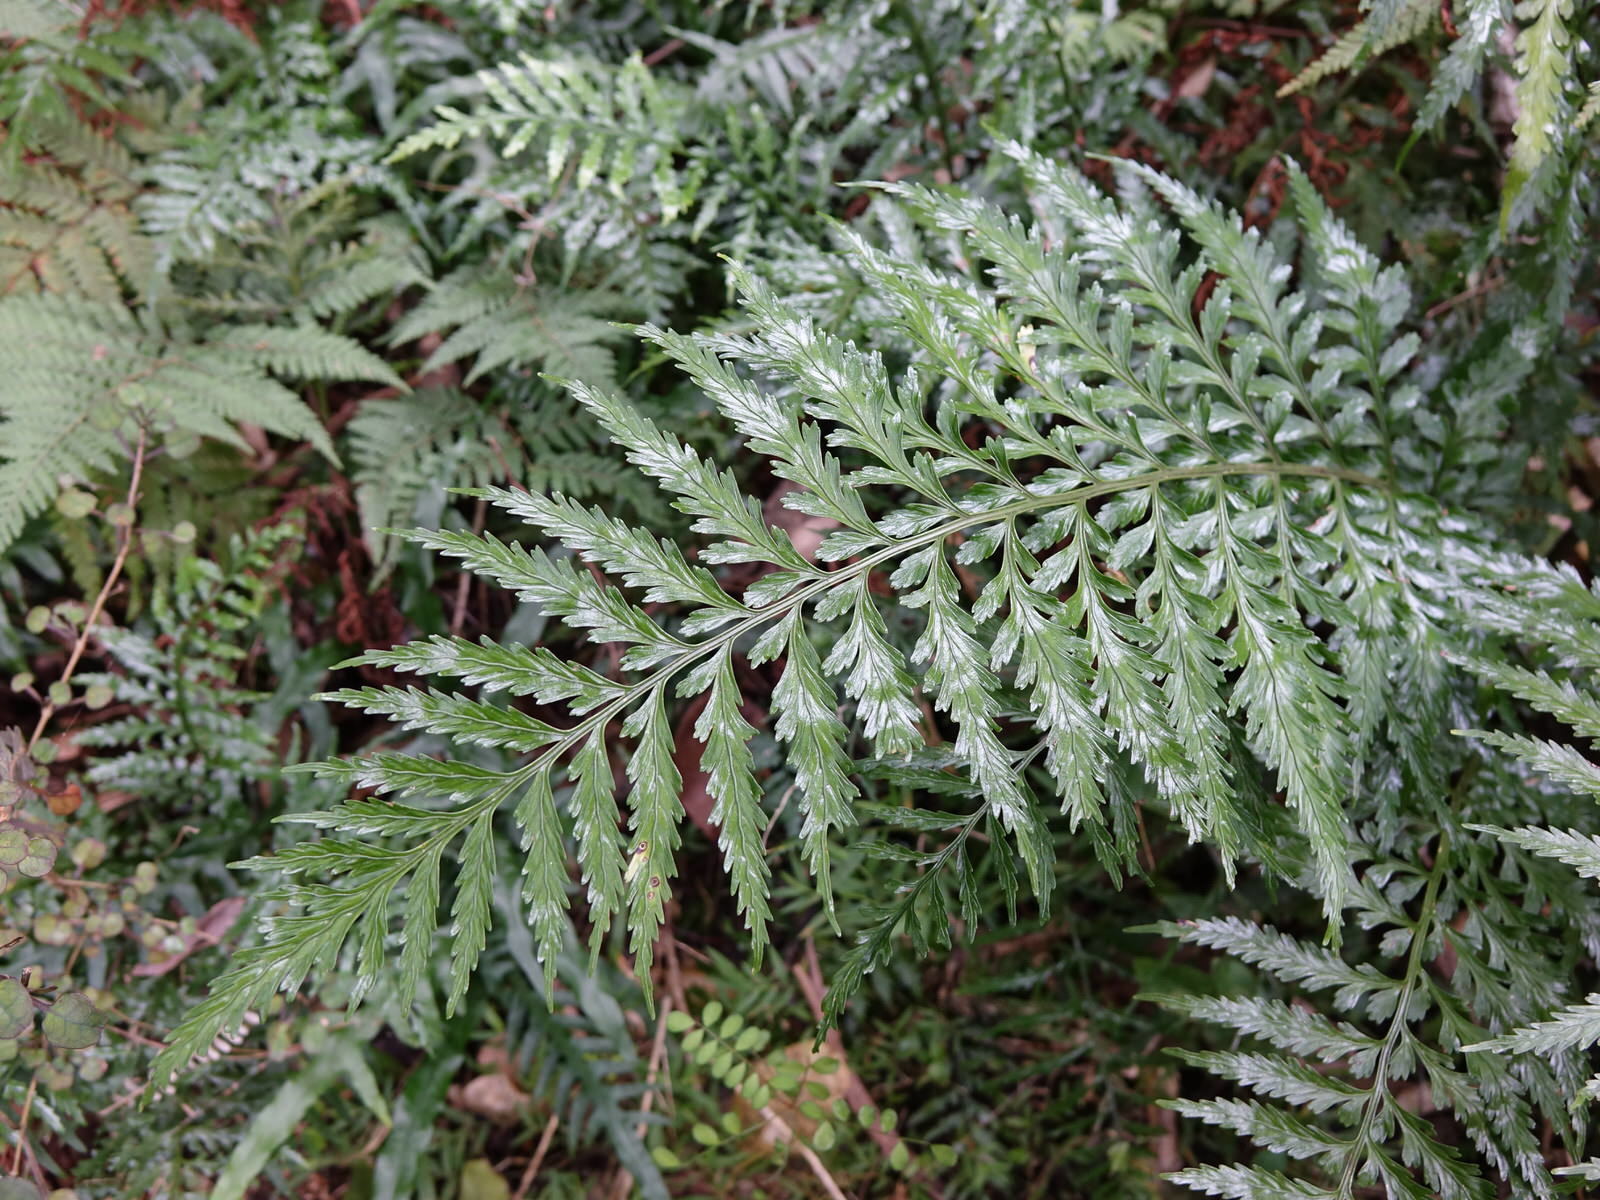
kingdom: Plantae
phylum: Tracheophyta
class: Polypodiopsida
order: Polypodiales
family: Aspleniaceae
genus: Asplenium
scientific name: Asplenium lamprophyllum
